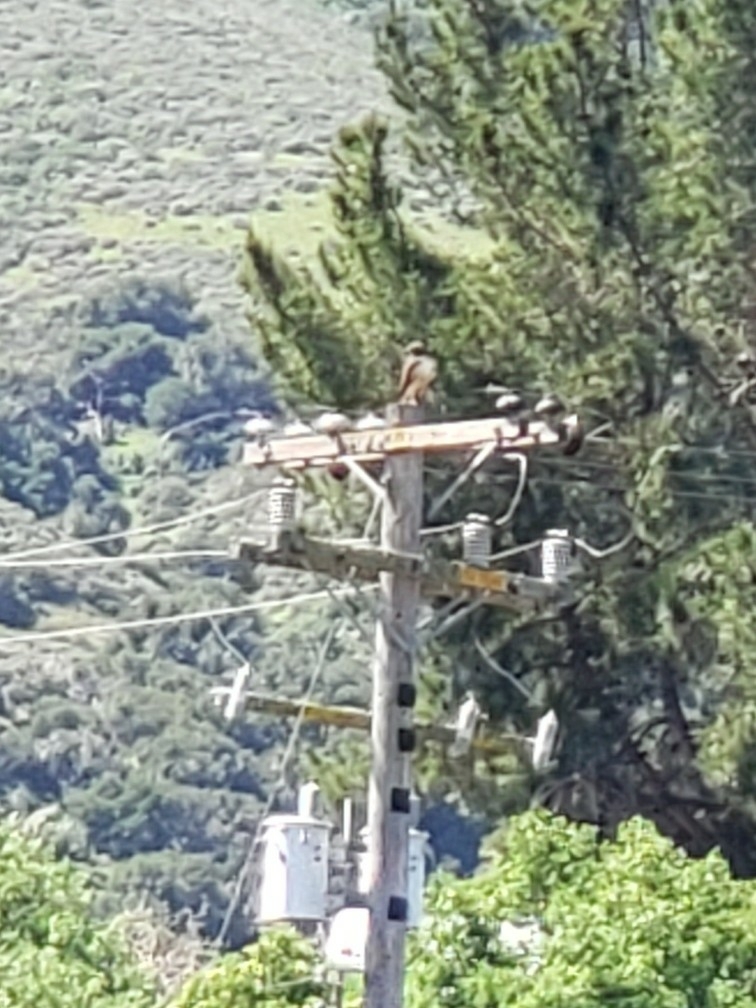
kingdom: Animalia
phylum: Chordata
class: Aves
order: Accipitriformes
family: Accipitridae
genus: Buteo
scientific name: Buteo jamaicensis
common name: Red-tailed hawk
